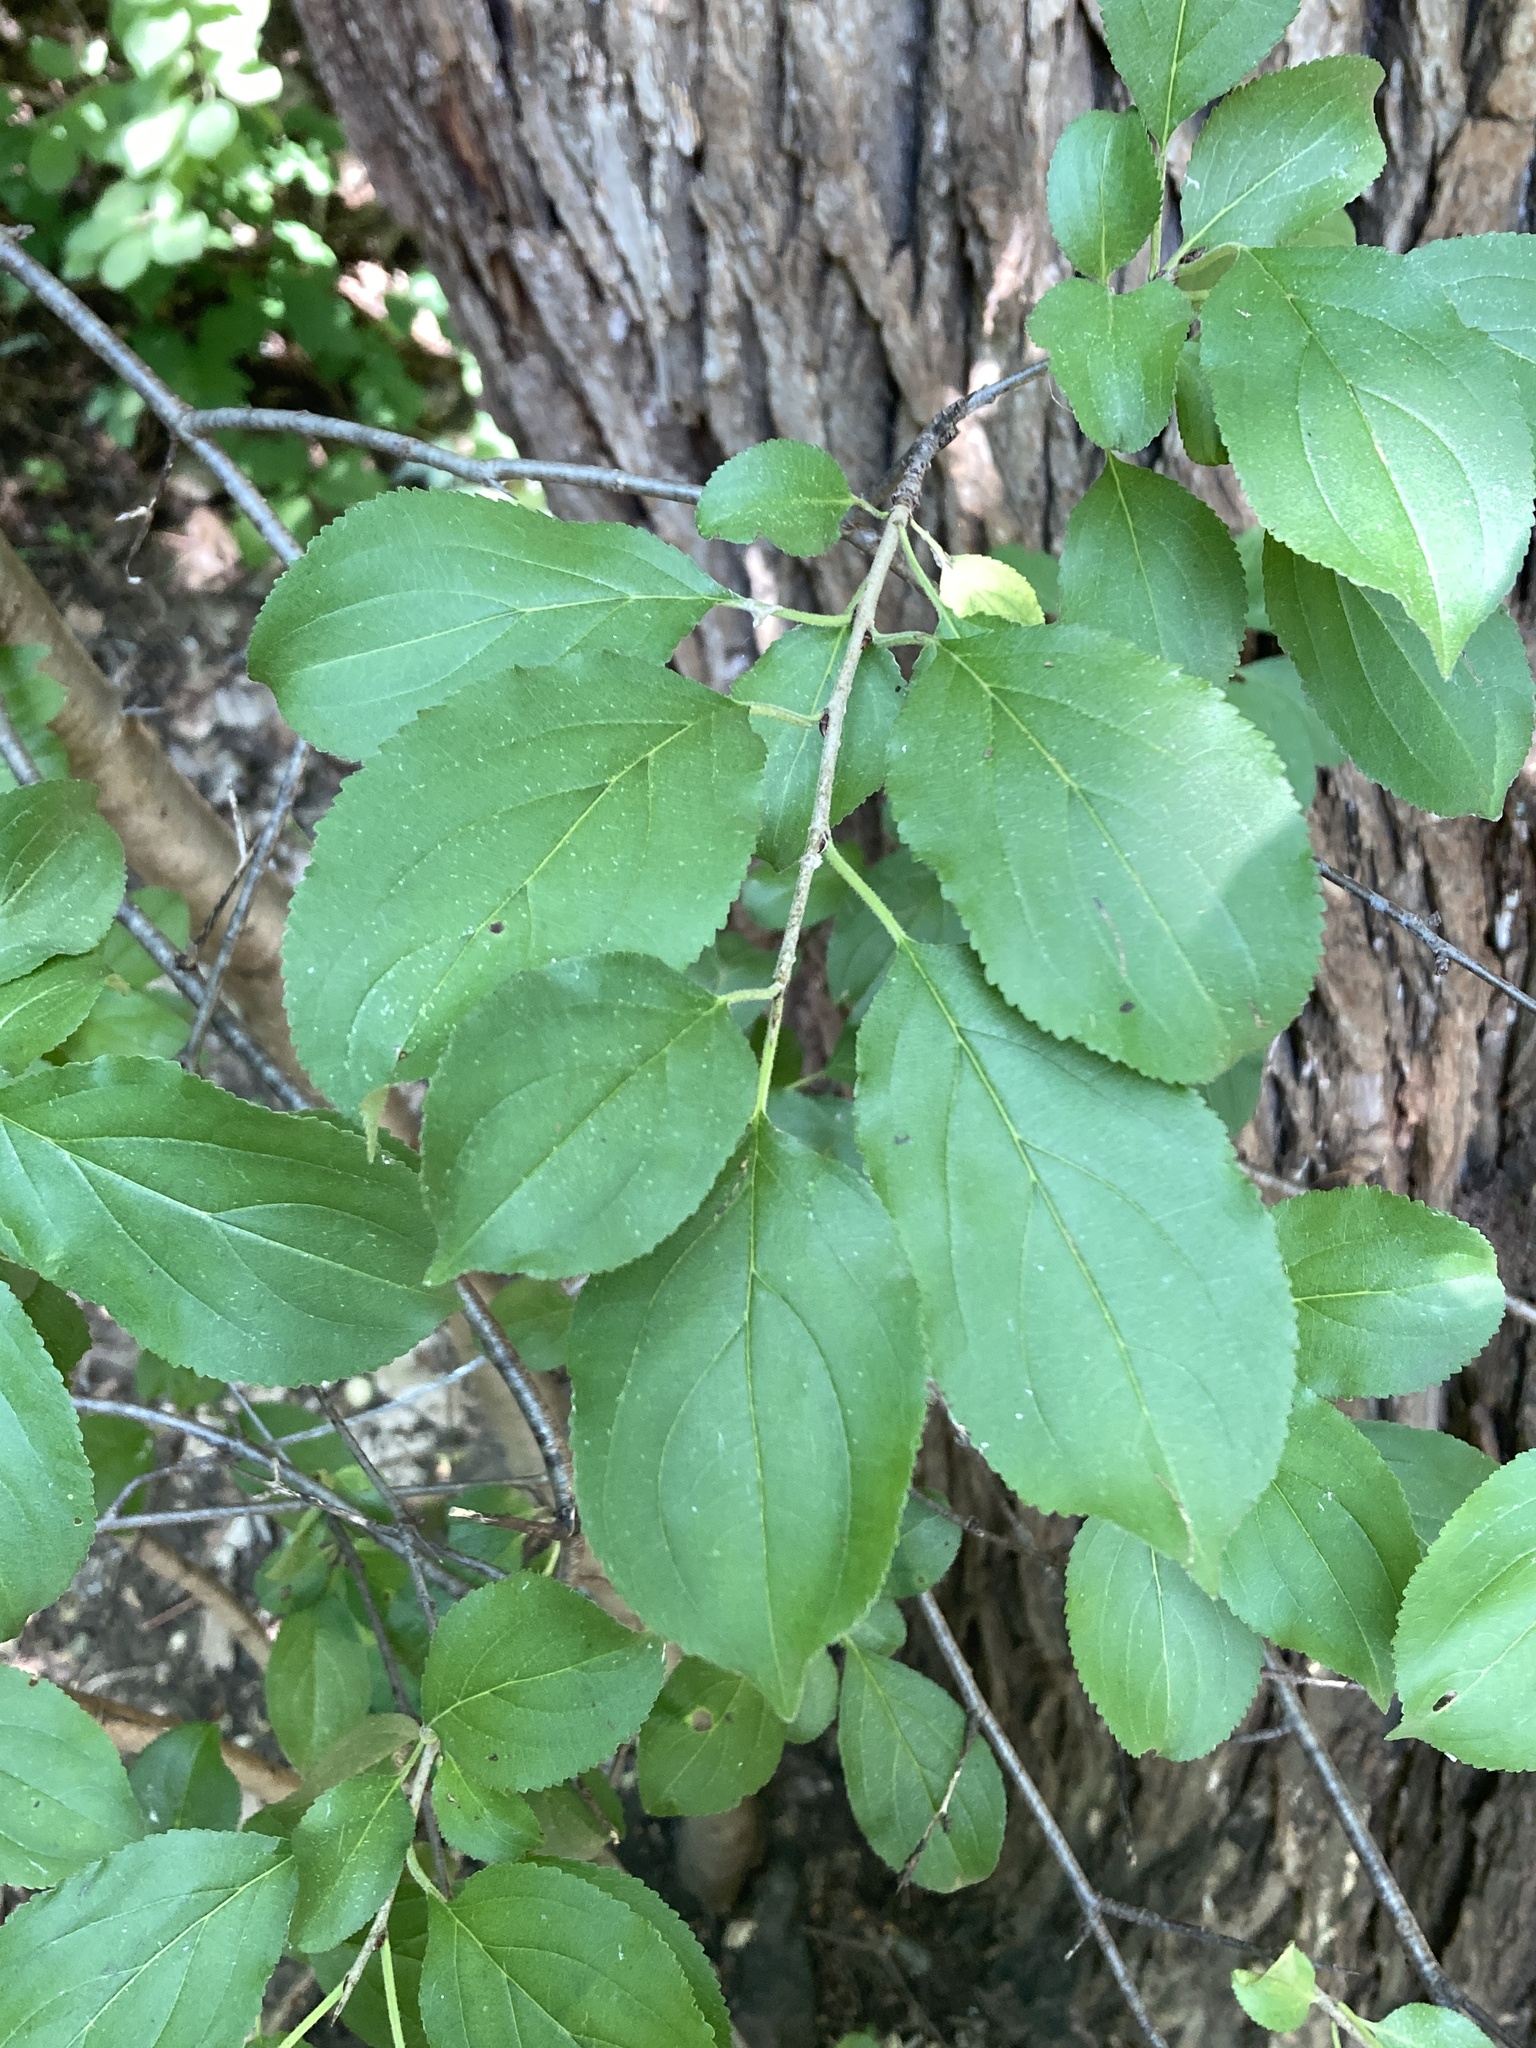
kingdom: Plantae
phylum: Tracheophyta
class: Magnoliopsida
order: Rosales
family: Rhamnaceae
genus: Rhamnus
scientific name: Rhamnus cathartica
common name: Common buckthorn
